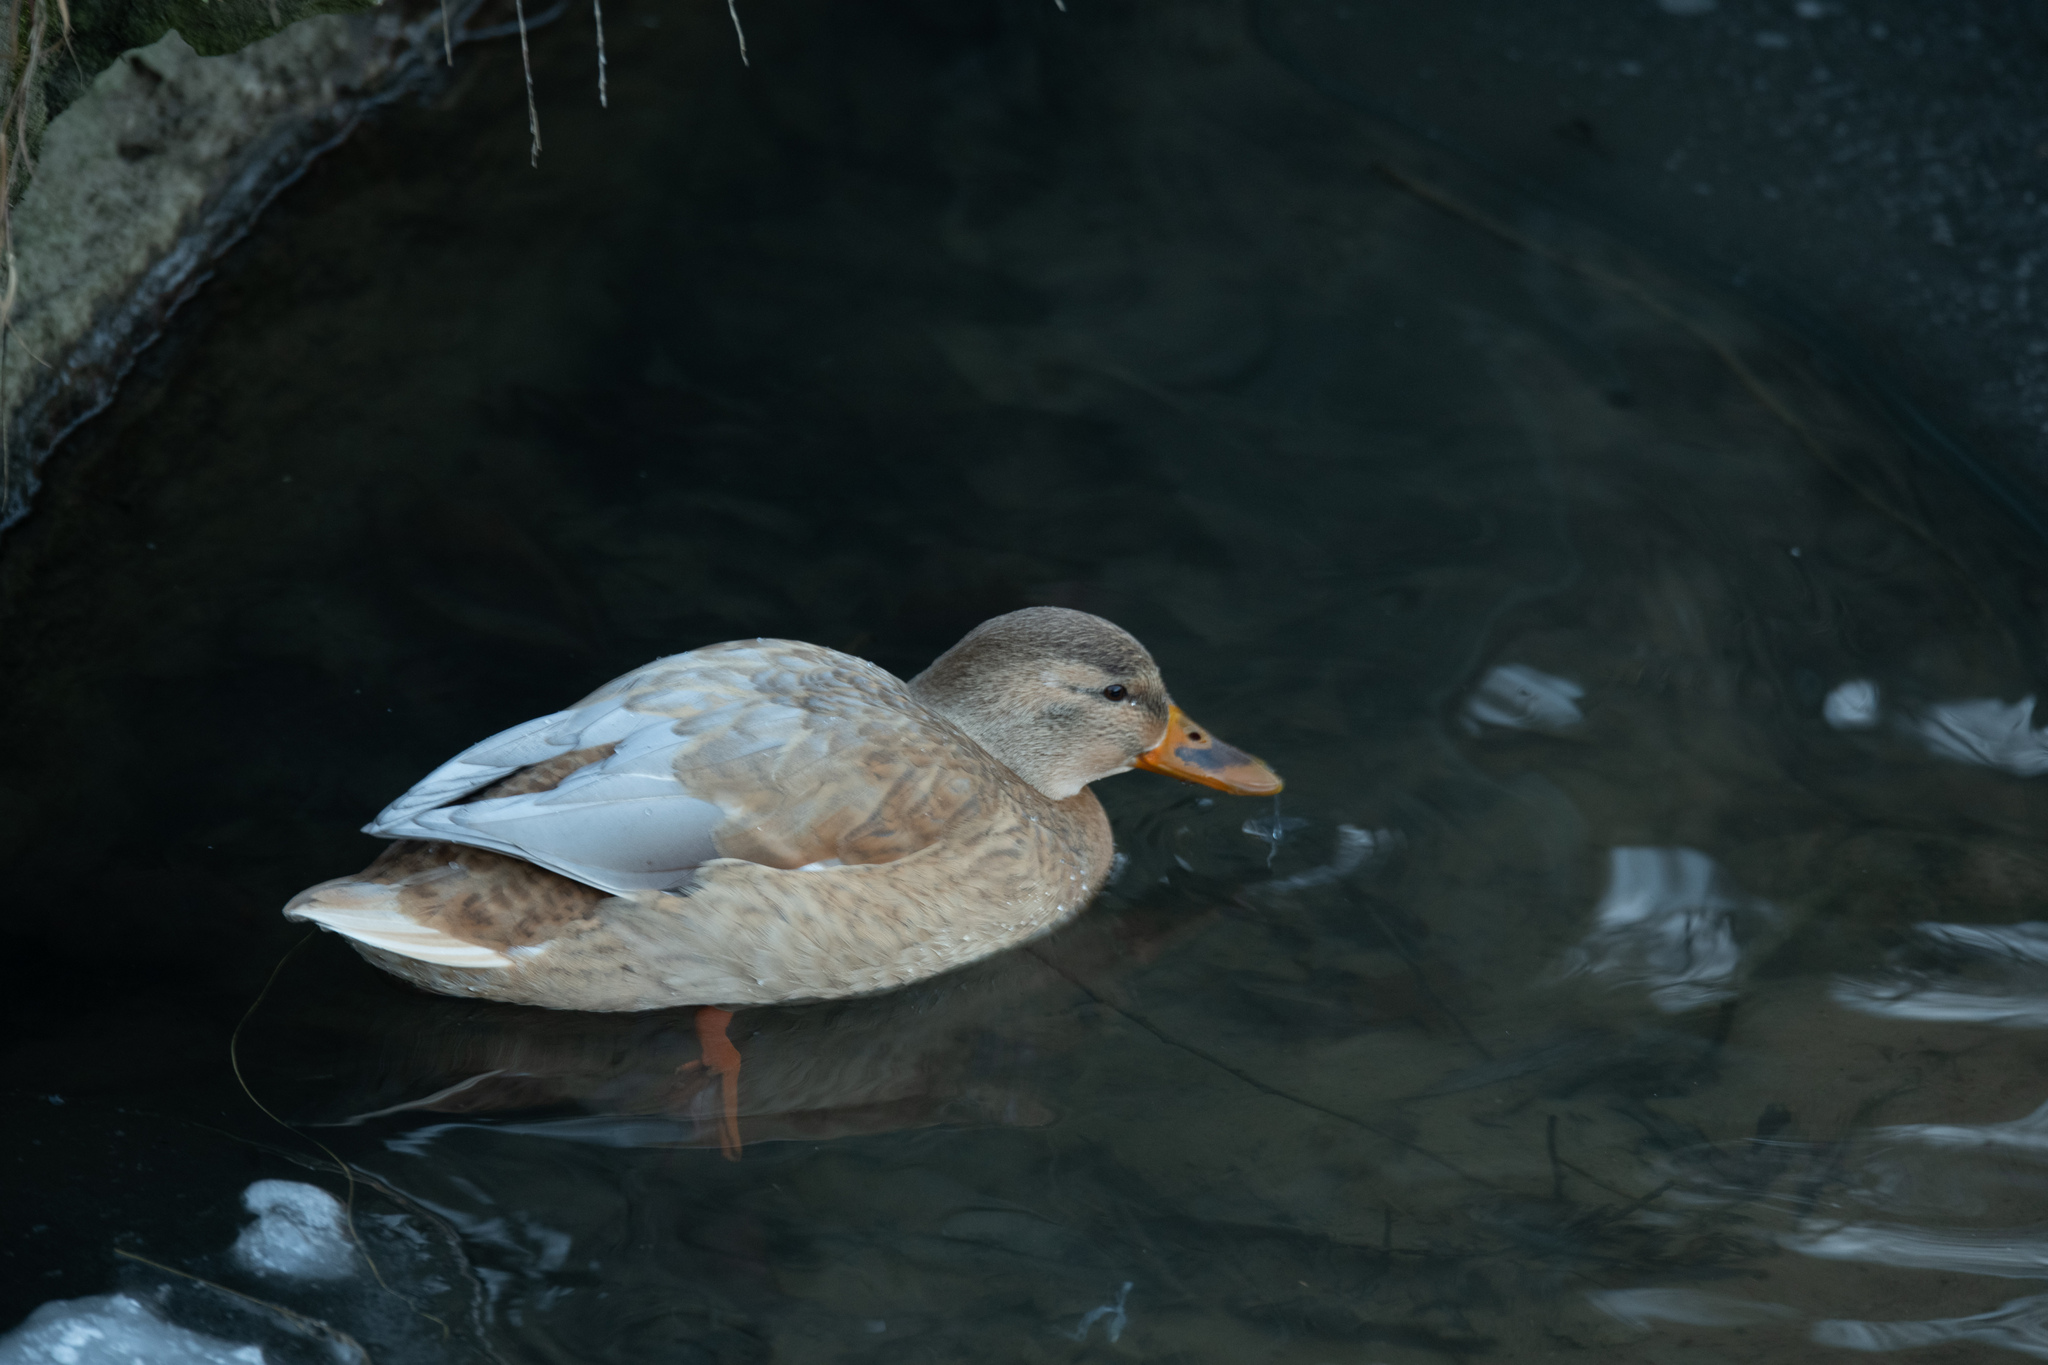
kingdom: Animalia
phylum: Chordata
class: Aves
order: Anseriformes
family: Anatidae
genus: Anas
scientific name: Anas platyrhynchos
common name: Mallard
